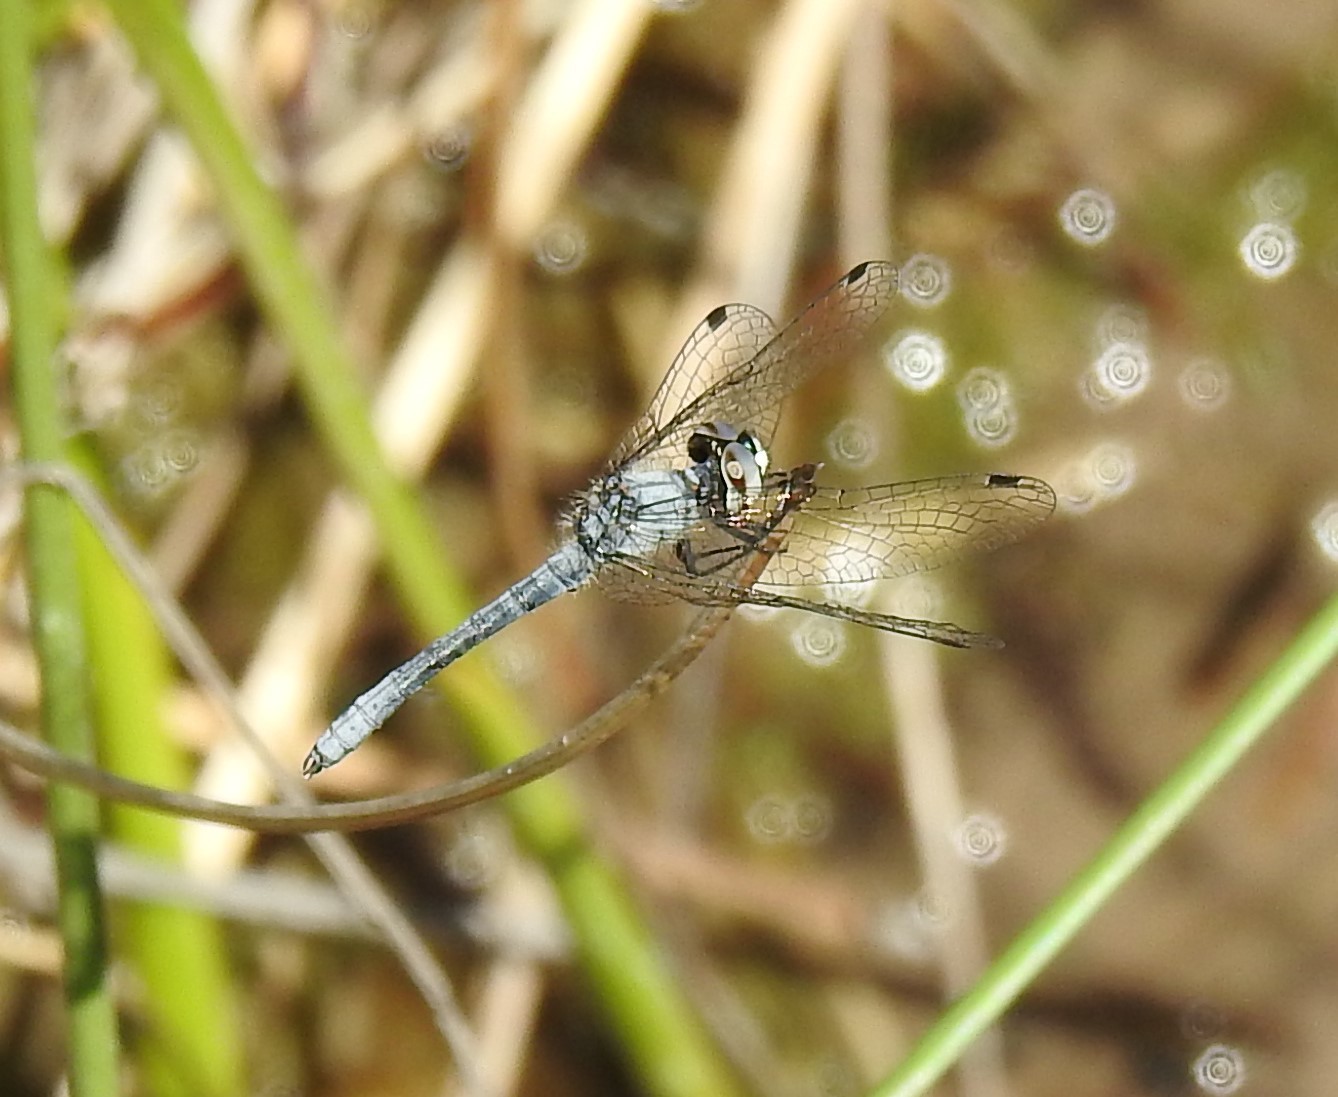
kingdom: Animalia
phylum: Arthropoda
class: Insecta
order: Odonata
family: Libellulidae
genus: Nannothemis
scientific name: Nannothemis bella
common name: Elfin skimmer
